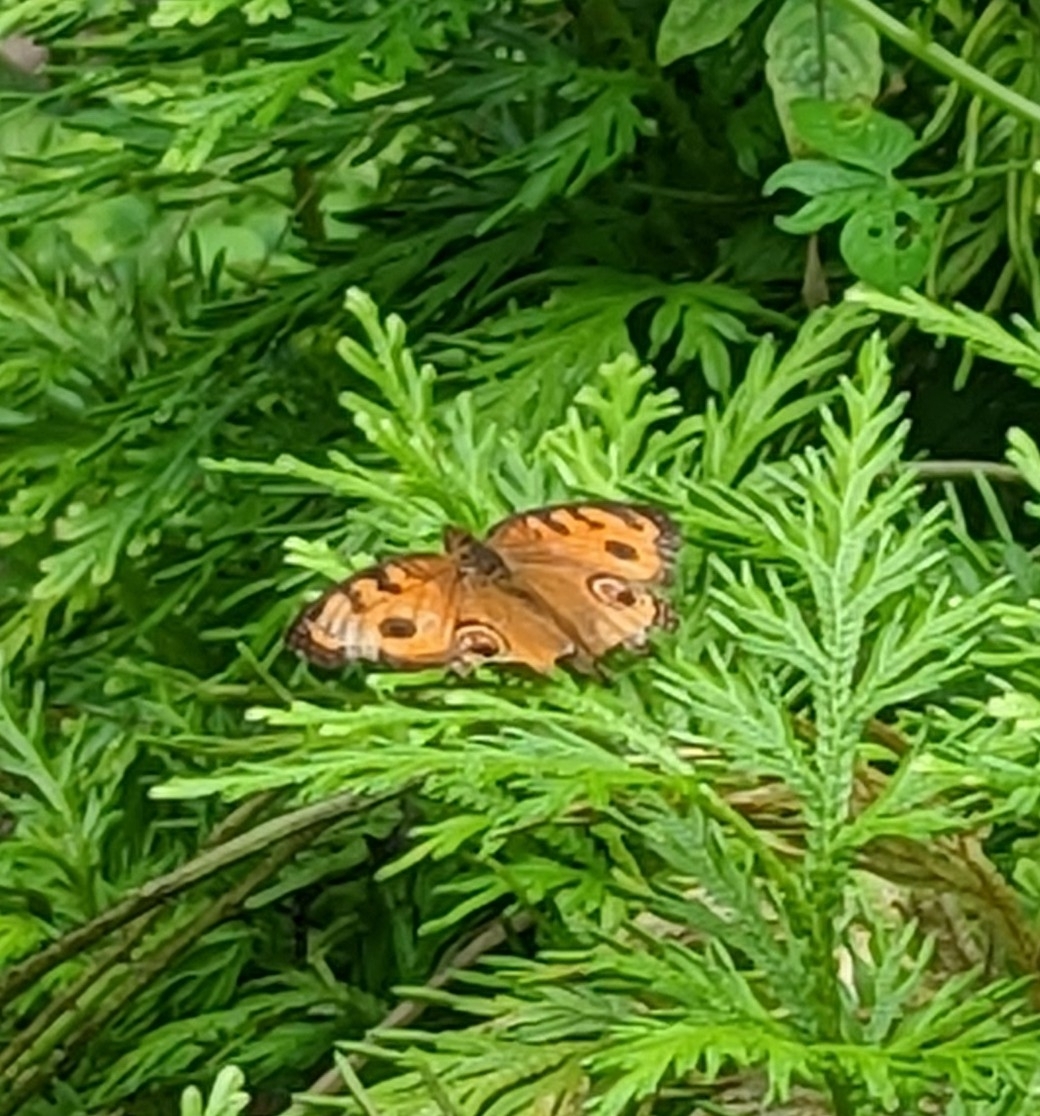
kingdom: Animalia
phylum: Arthropoda
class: Insecta
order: Lepidoptera
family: Nymphalidae
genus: Junonia
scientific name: Junonia almana
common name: Peacock pansy
